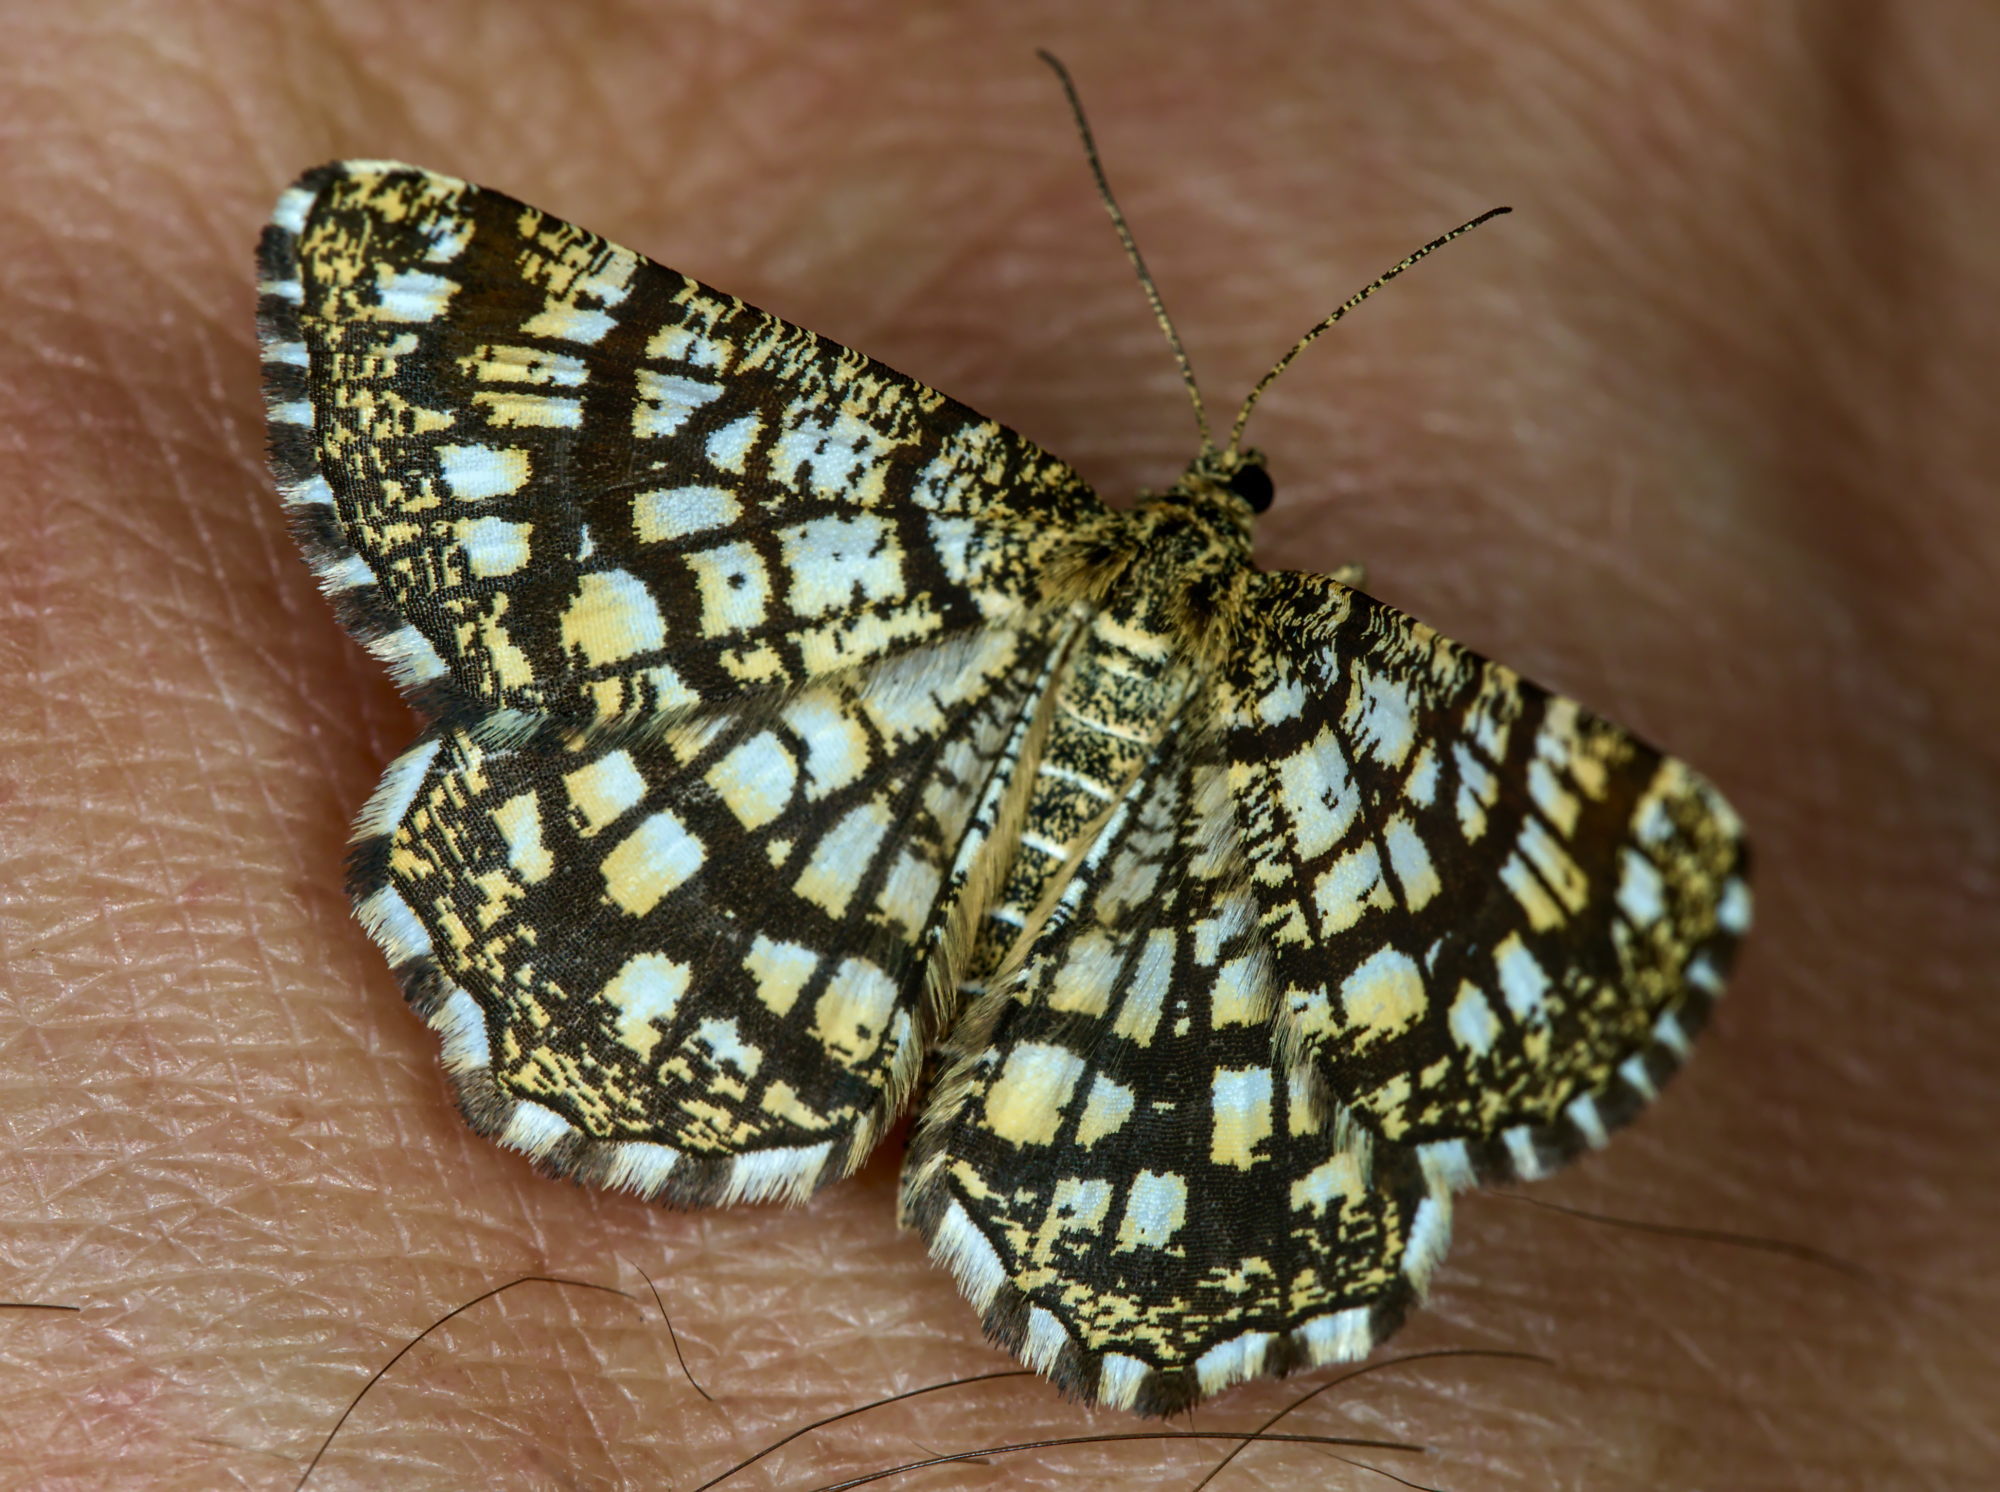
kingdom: Animalia
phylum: Arthropoda
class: Insecta
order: Lepidoptera
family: Geometridae
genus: Chiasmia
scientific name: Chiasmia clathrata
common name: Latticed heath
